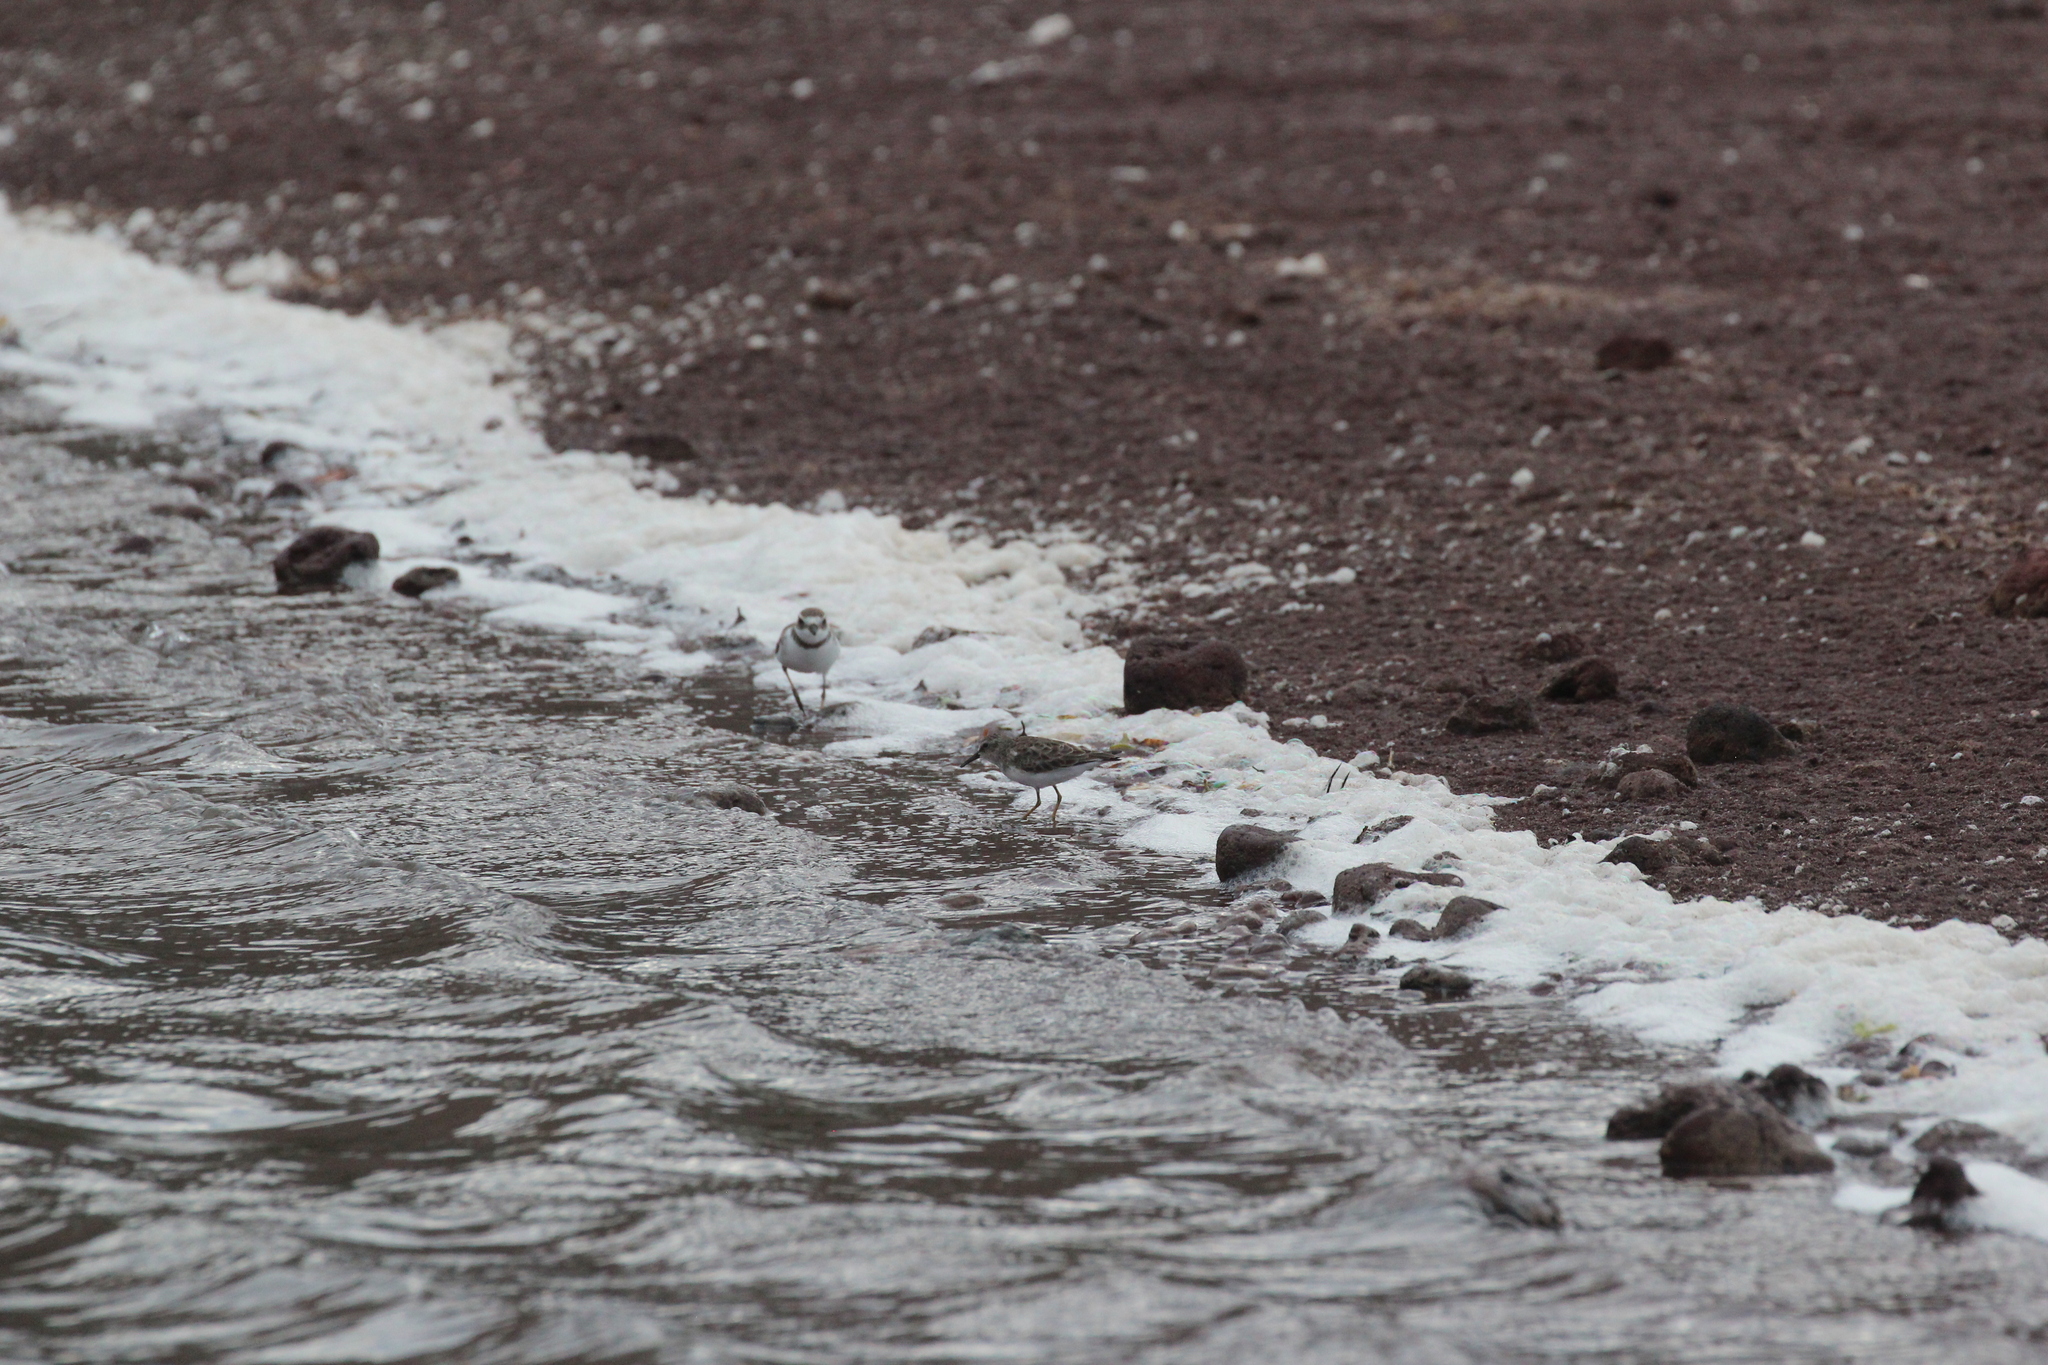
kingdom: Animalia
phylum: Chordata
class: Aves
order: Charadriiformes
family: Charadriidae
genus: Charadrius
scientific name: Charadrius semipalmatus
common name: Semipalmated plover
